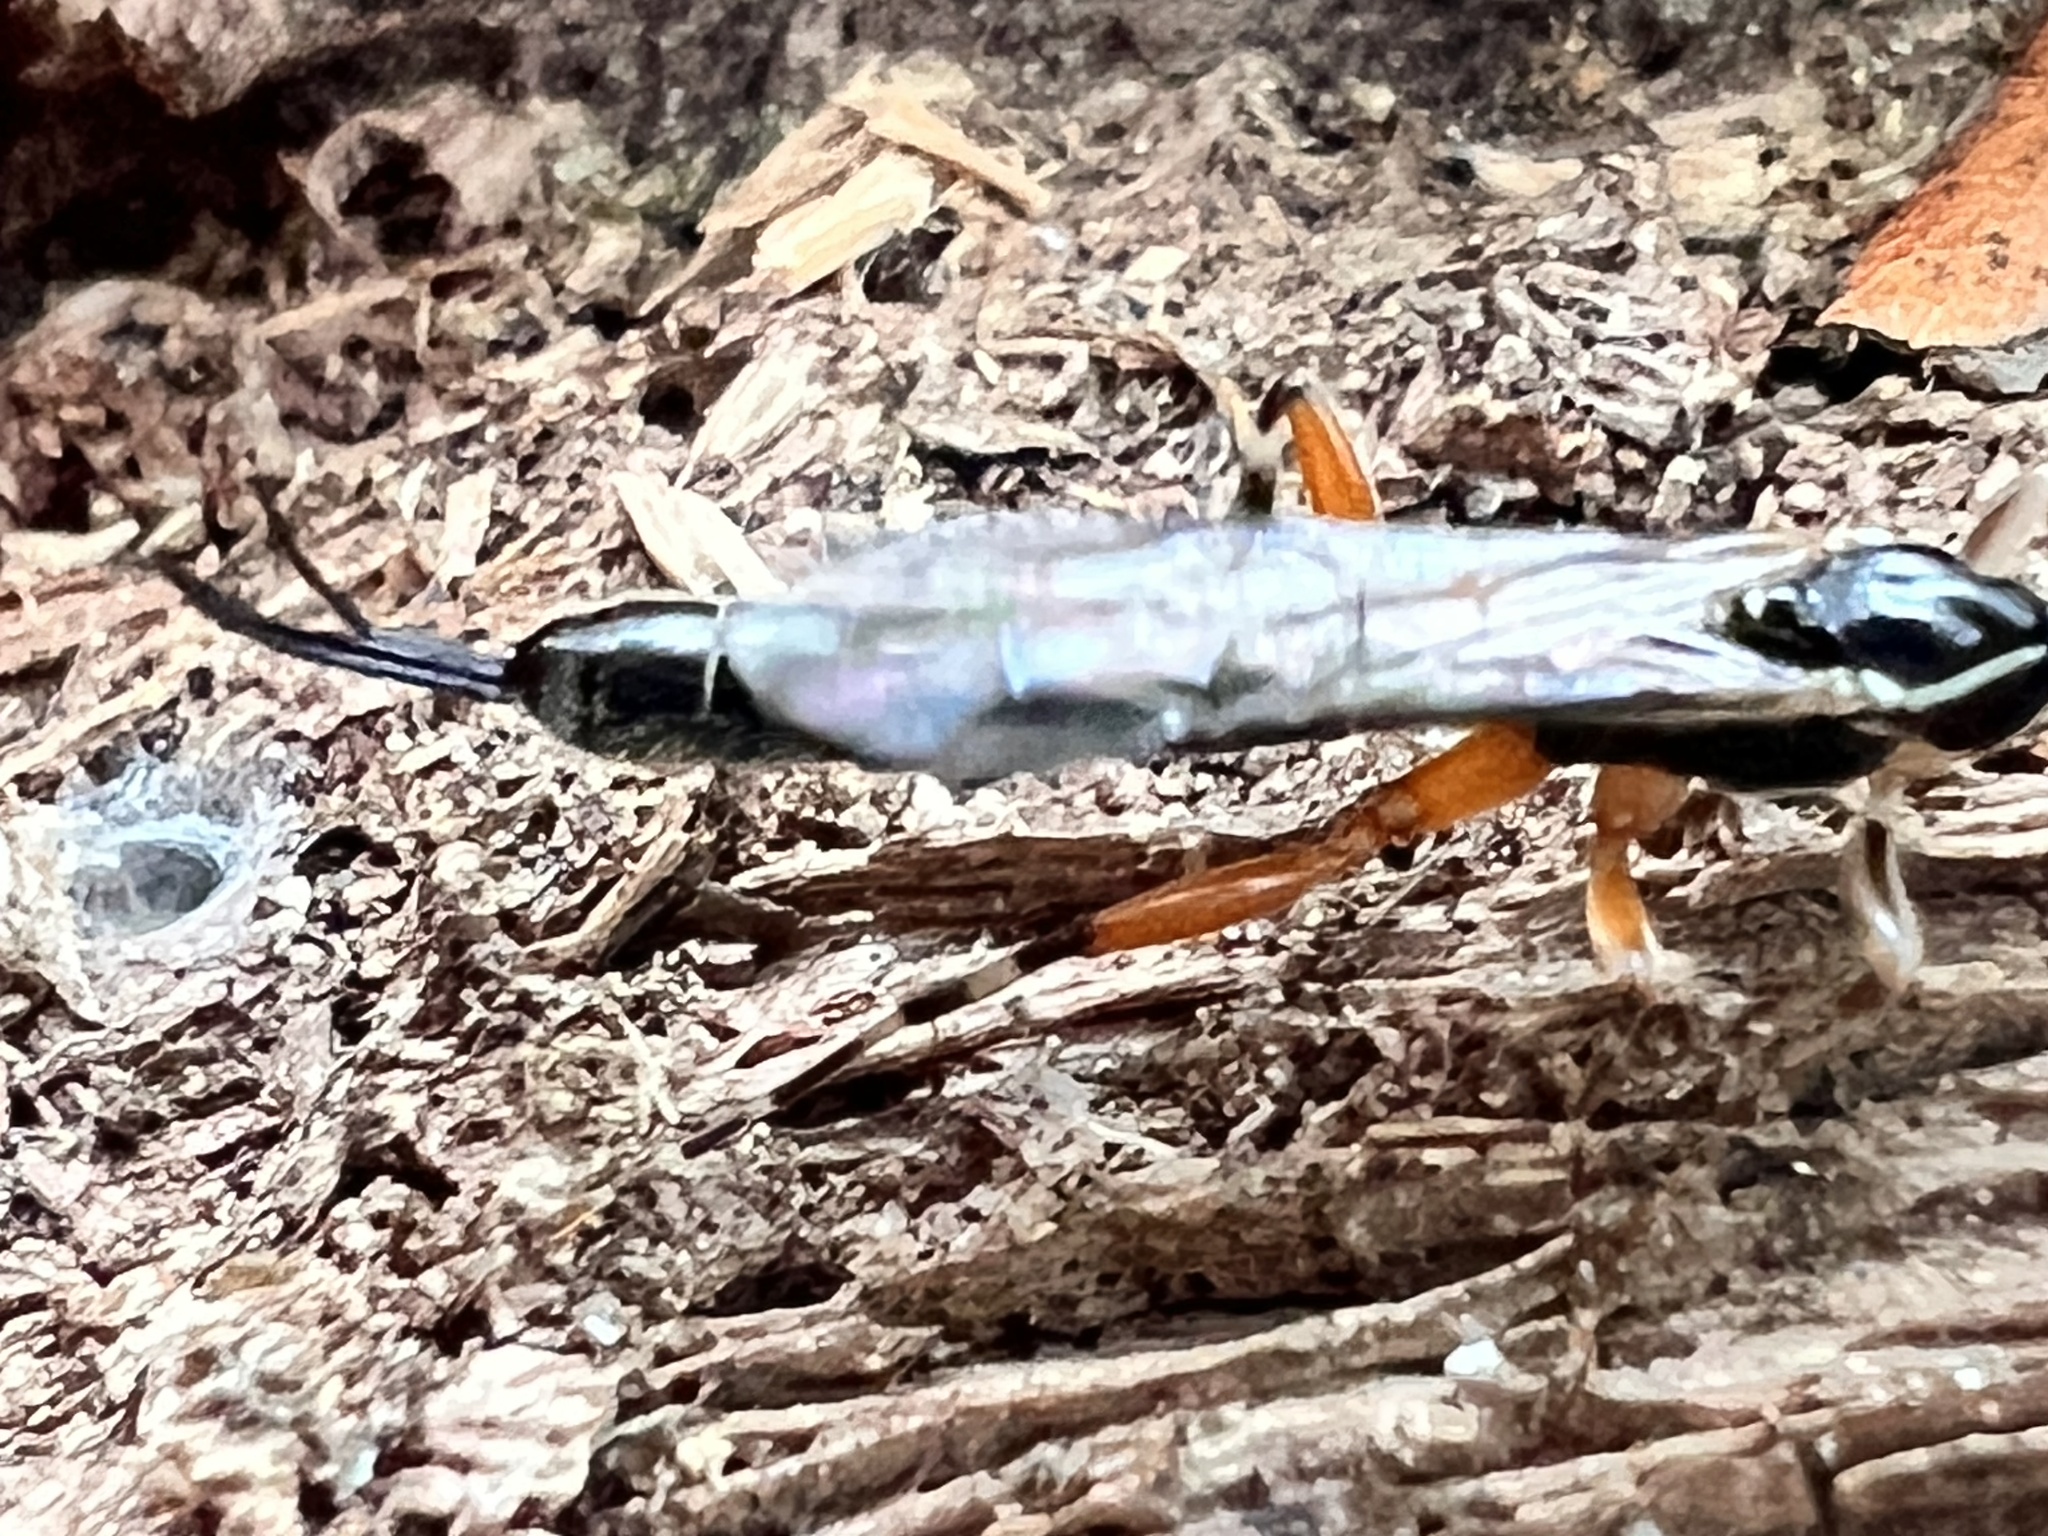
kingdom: Animalia
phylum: Arthropoda
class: Insecta
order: Hymenoptera
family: Ichneumonidae
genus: Clistopyga
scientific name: Clistopyga recurva
